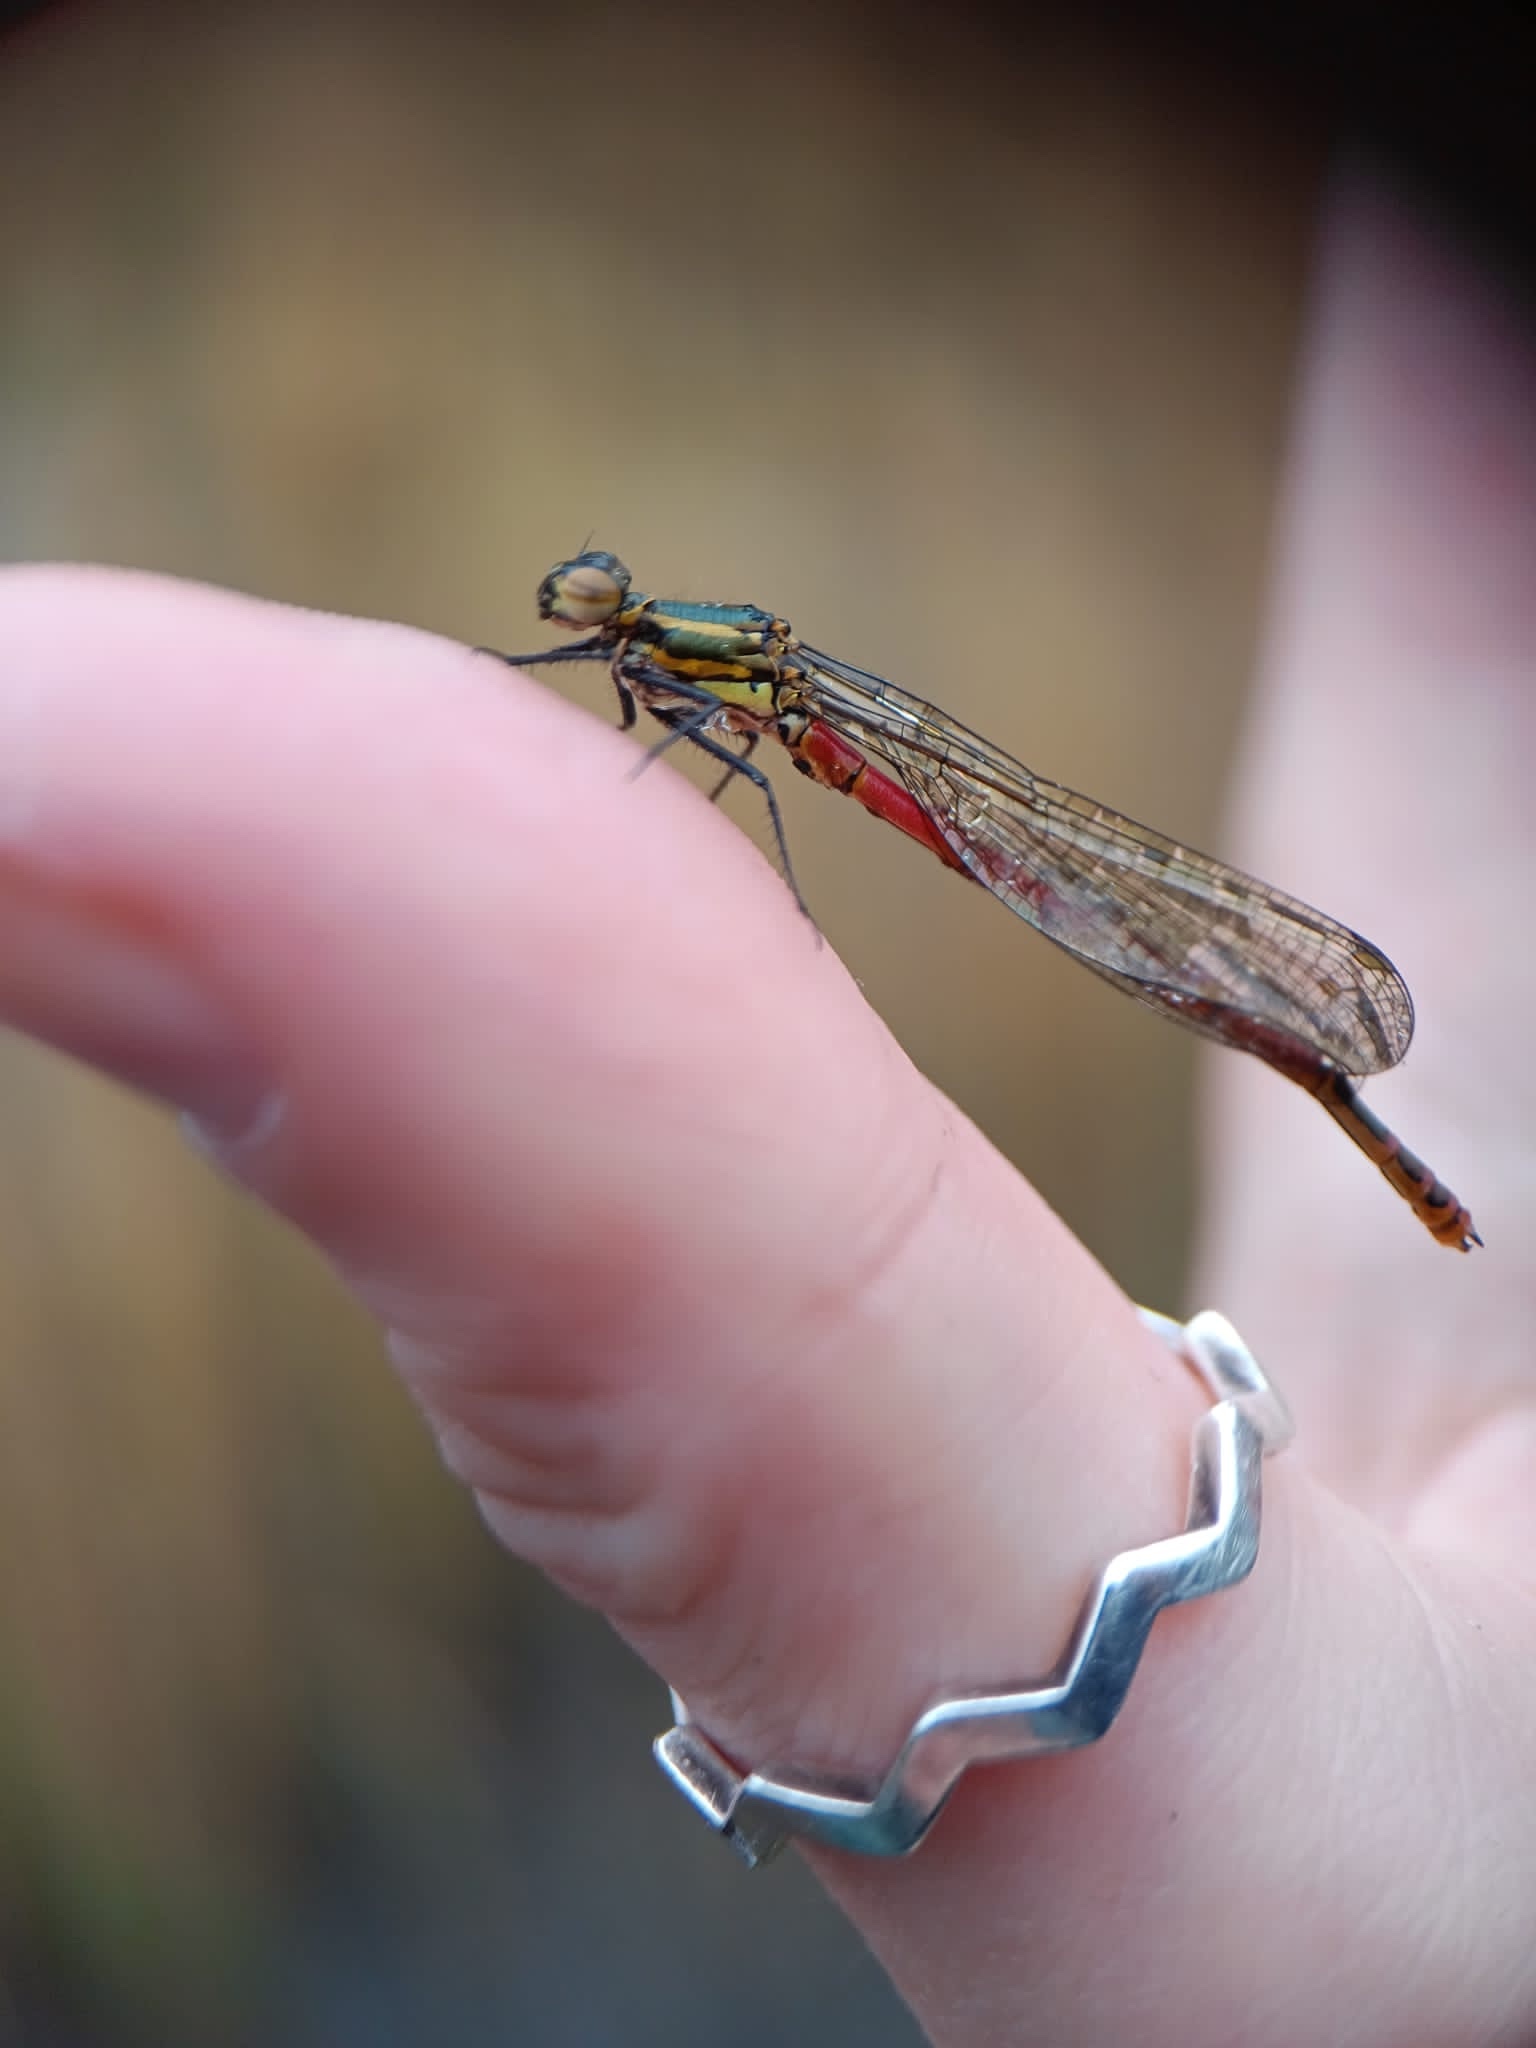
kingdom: Animalia
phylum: Arthropoda
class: Insecta
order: Odonata
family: Coenagrionidae
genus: Pyrrhosoma
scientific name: Pyrrhosoma nymphula
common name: Large red damsel
